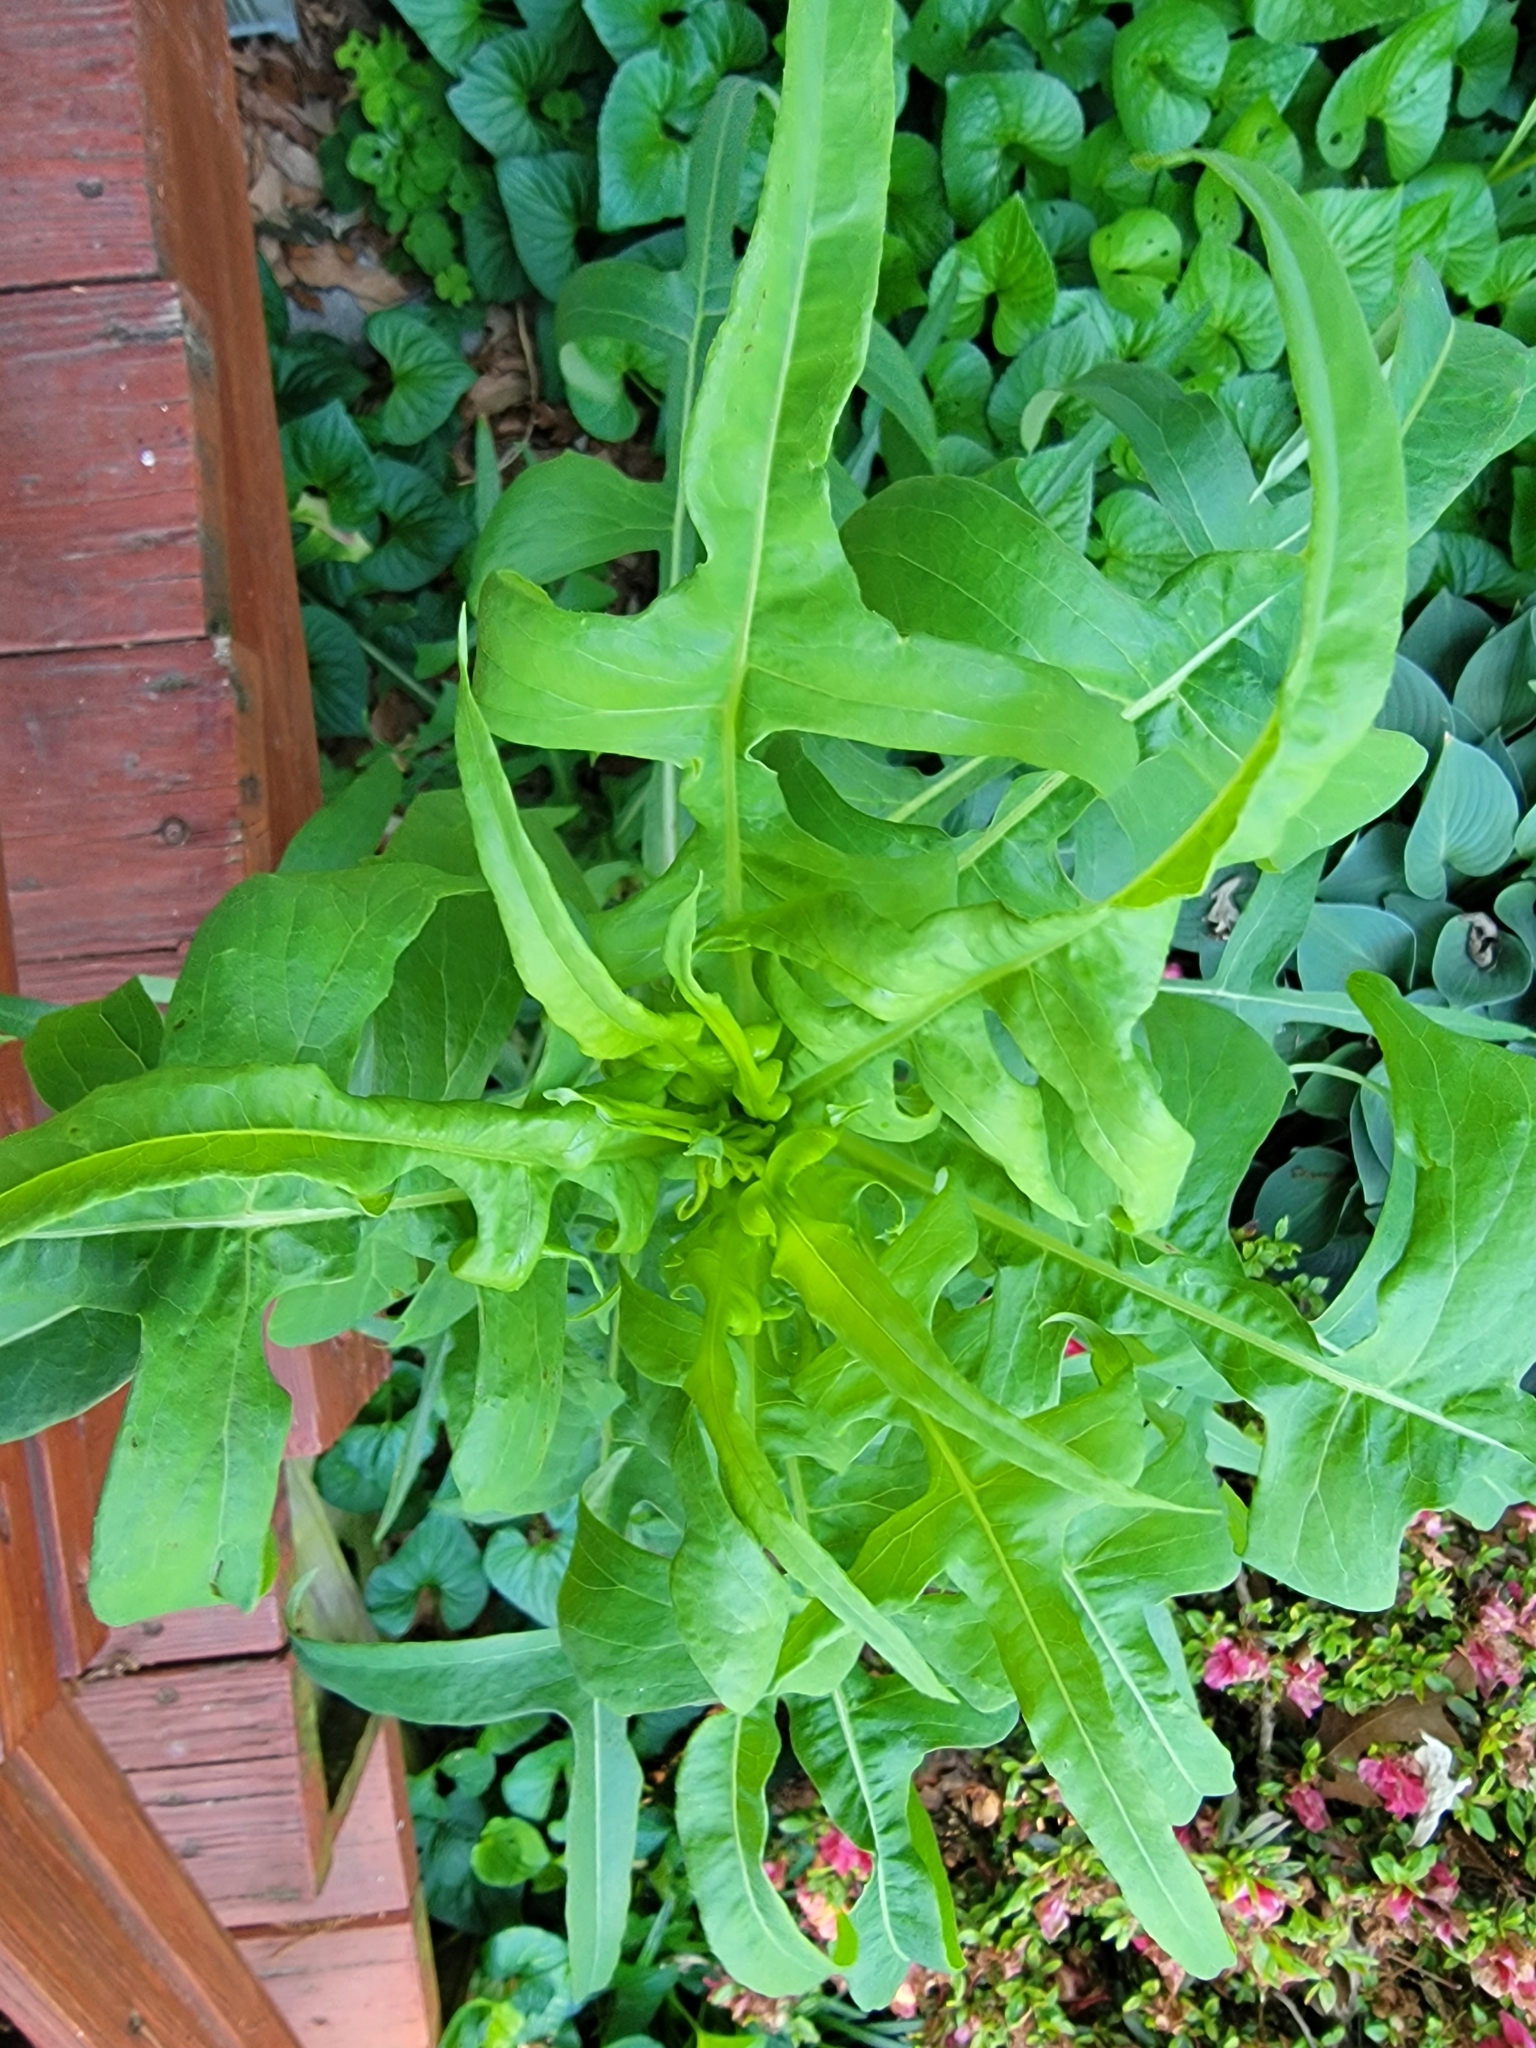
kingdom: Plantae
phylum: Tracheophyta
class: Magnoliopsida
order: Asterales
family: Asteraceae
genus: Lactuca
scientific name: Lactuca canadensis
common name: Canada lettuce
